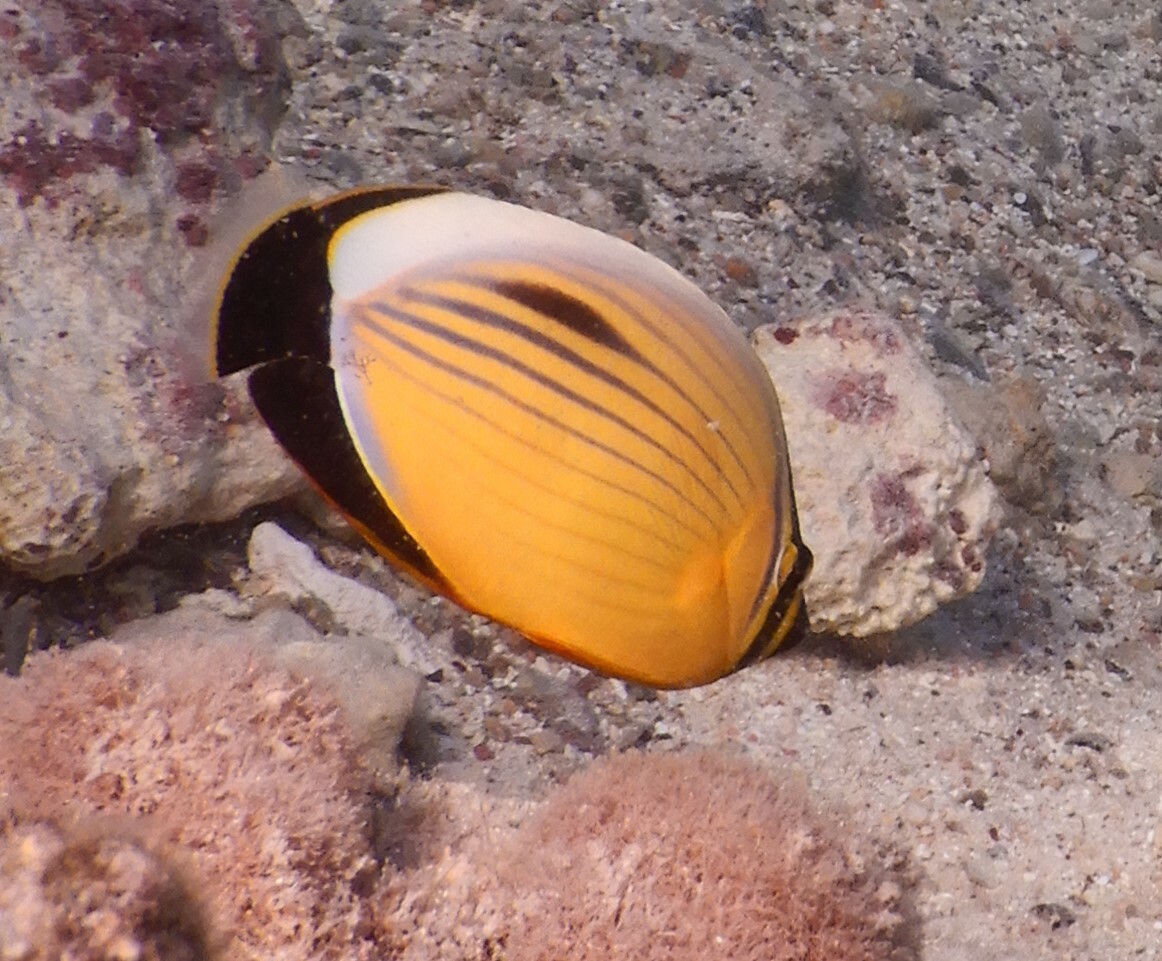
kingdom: Animalia
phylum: Chordata
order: Perciformes
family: Chaetodontidae
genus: Chaetodon
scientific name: Chaetodon austriacus
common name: Exquisite butterflyfish
